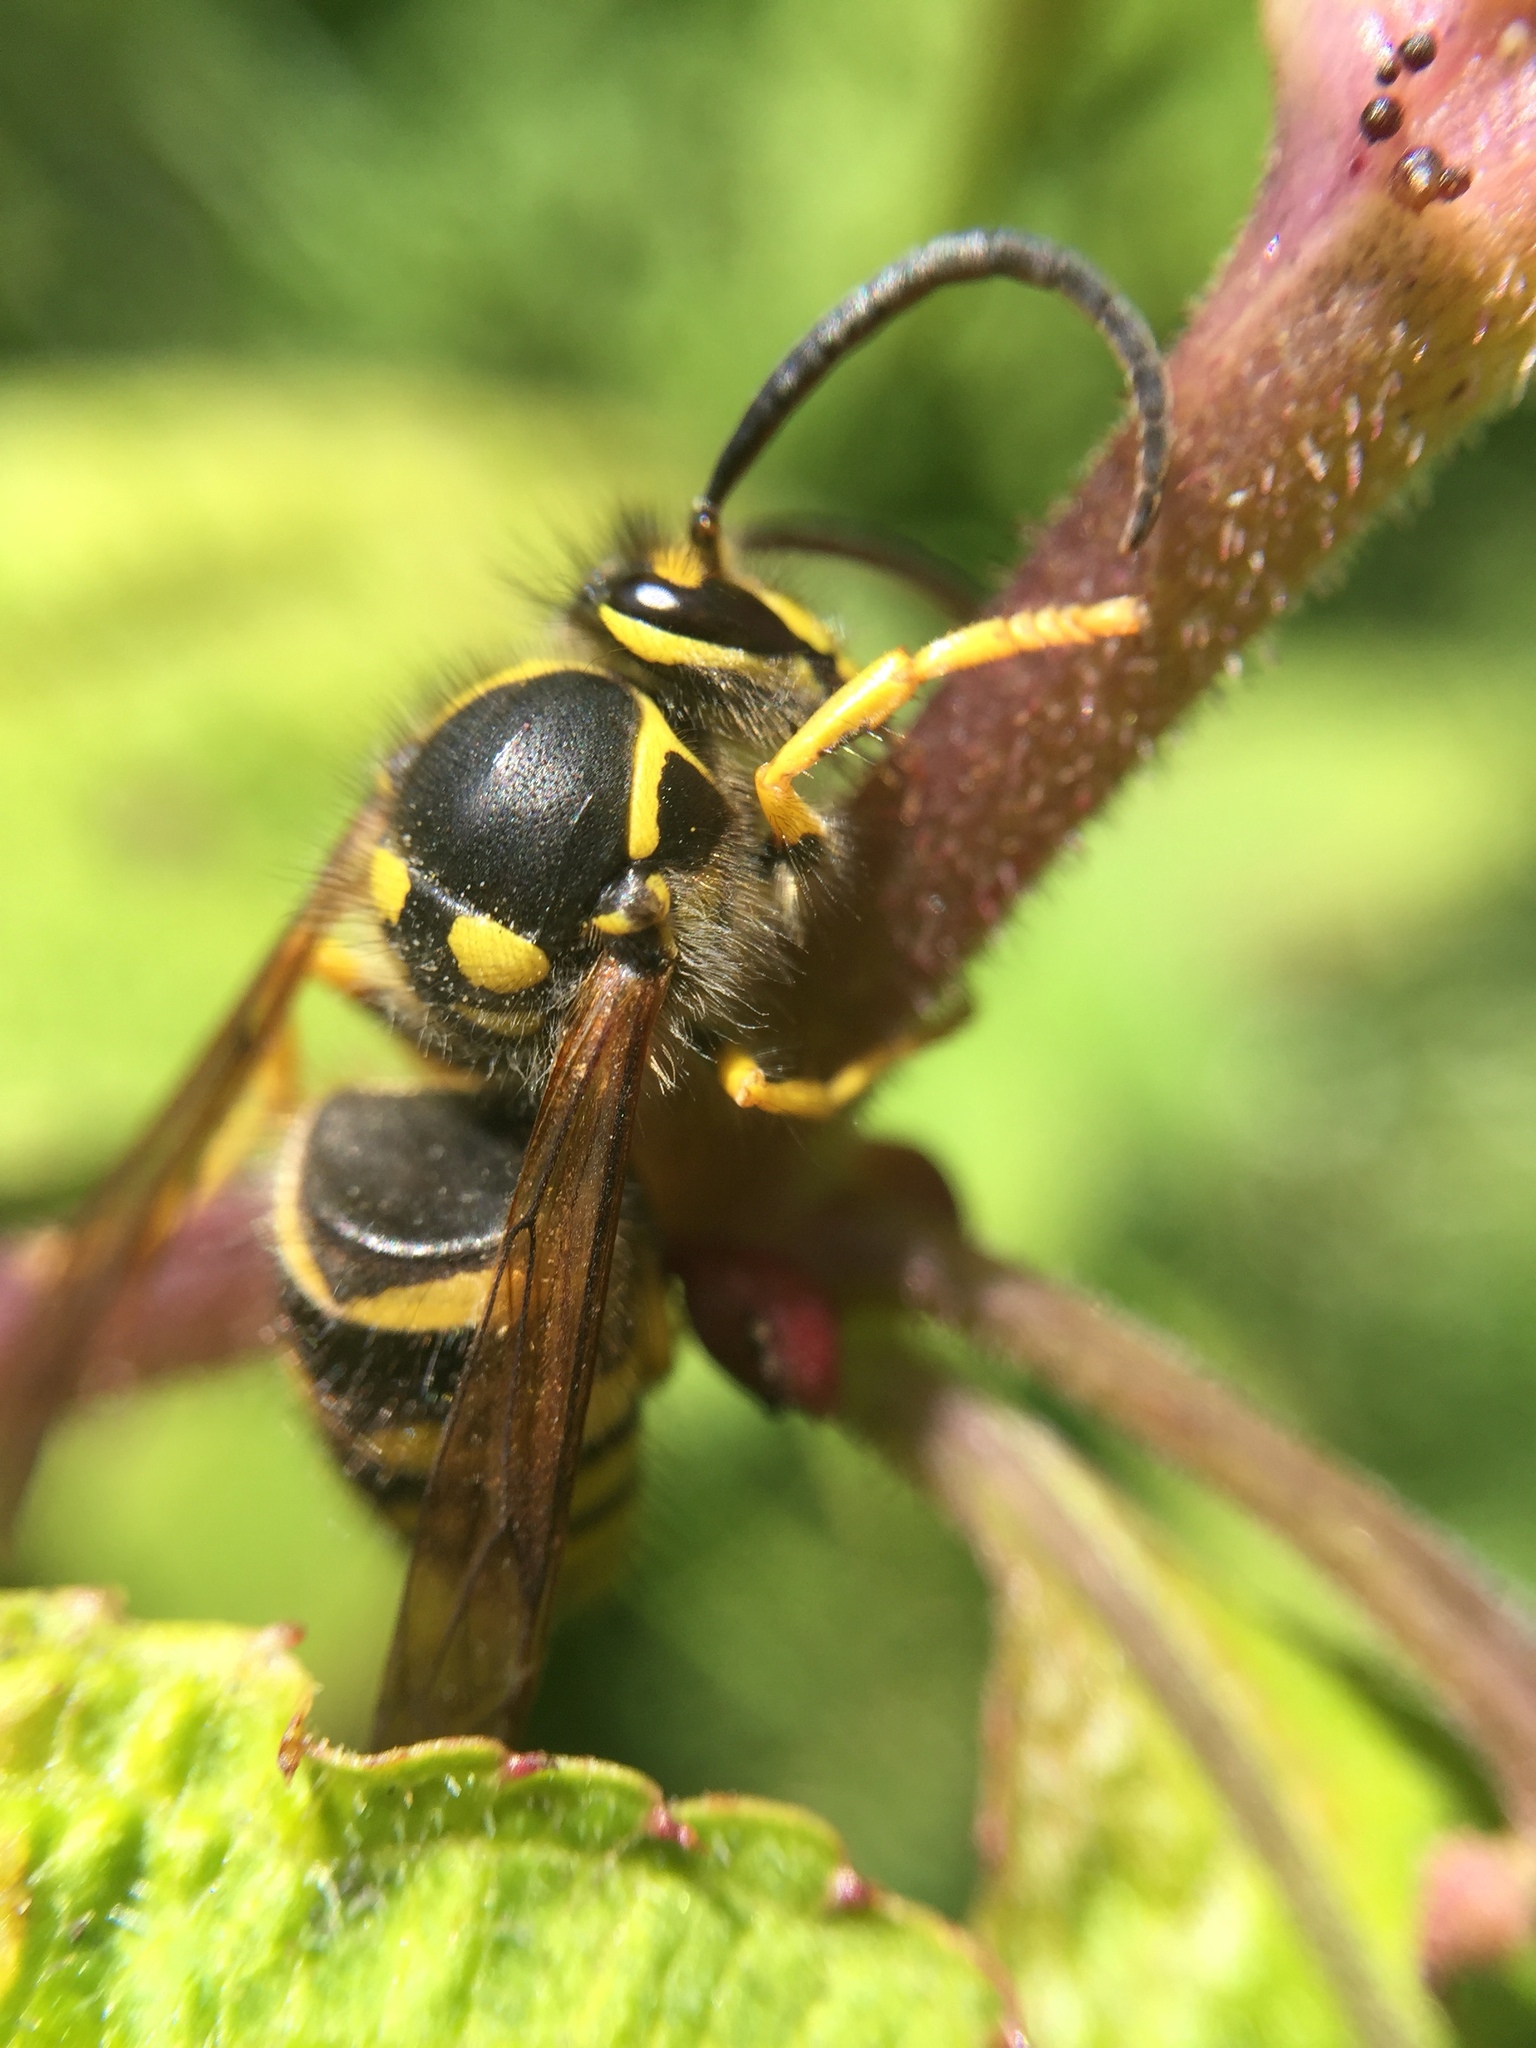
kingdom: Animalia
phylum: Arthropoda
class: Insecta
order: Hymenoptera
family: Vespidae
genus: Dolichovespula
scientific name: Dolichovespula arenaria
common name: Aerial yellowjacket
